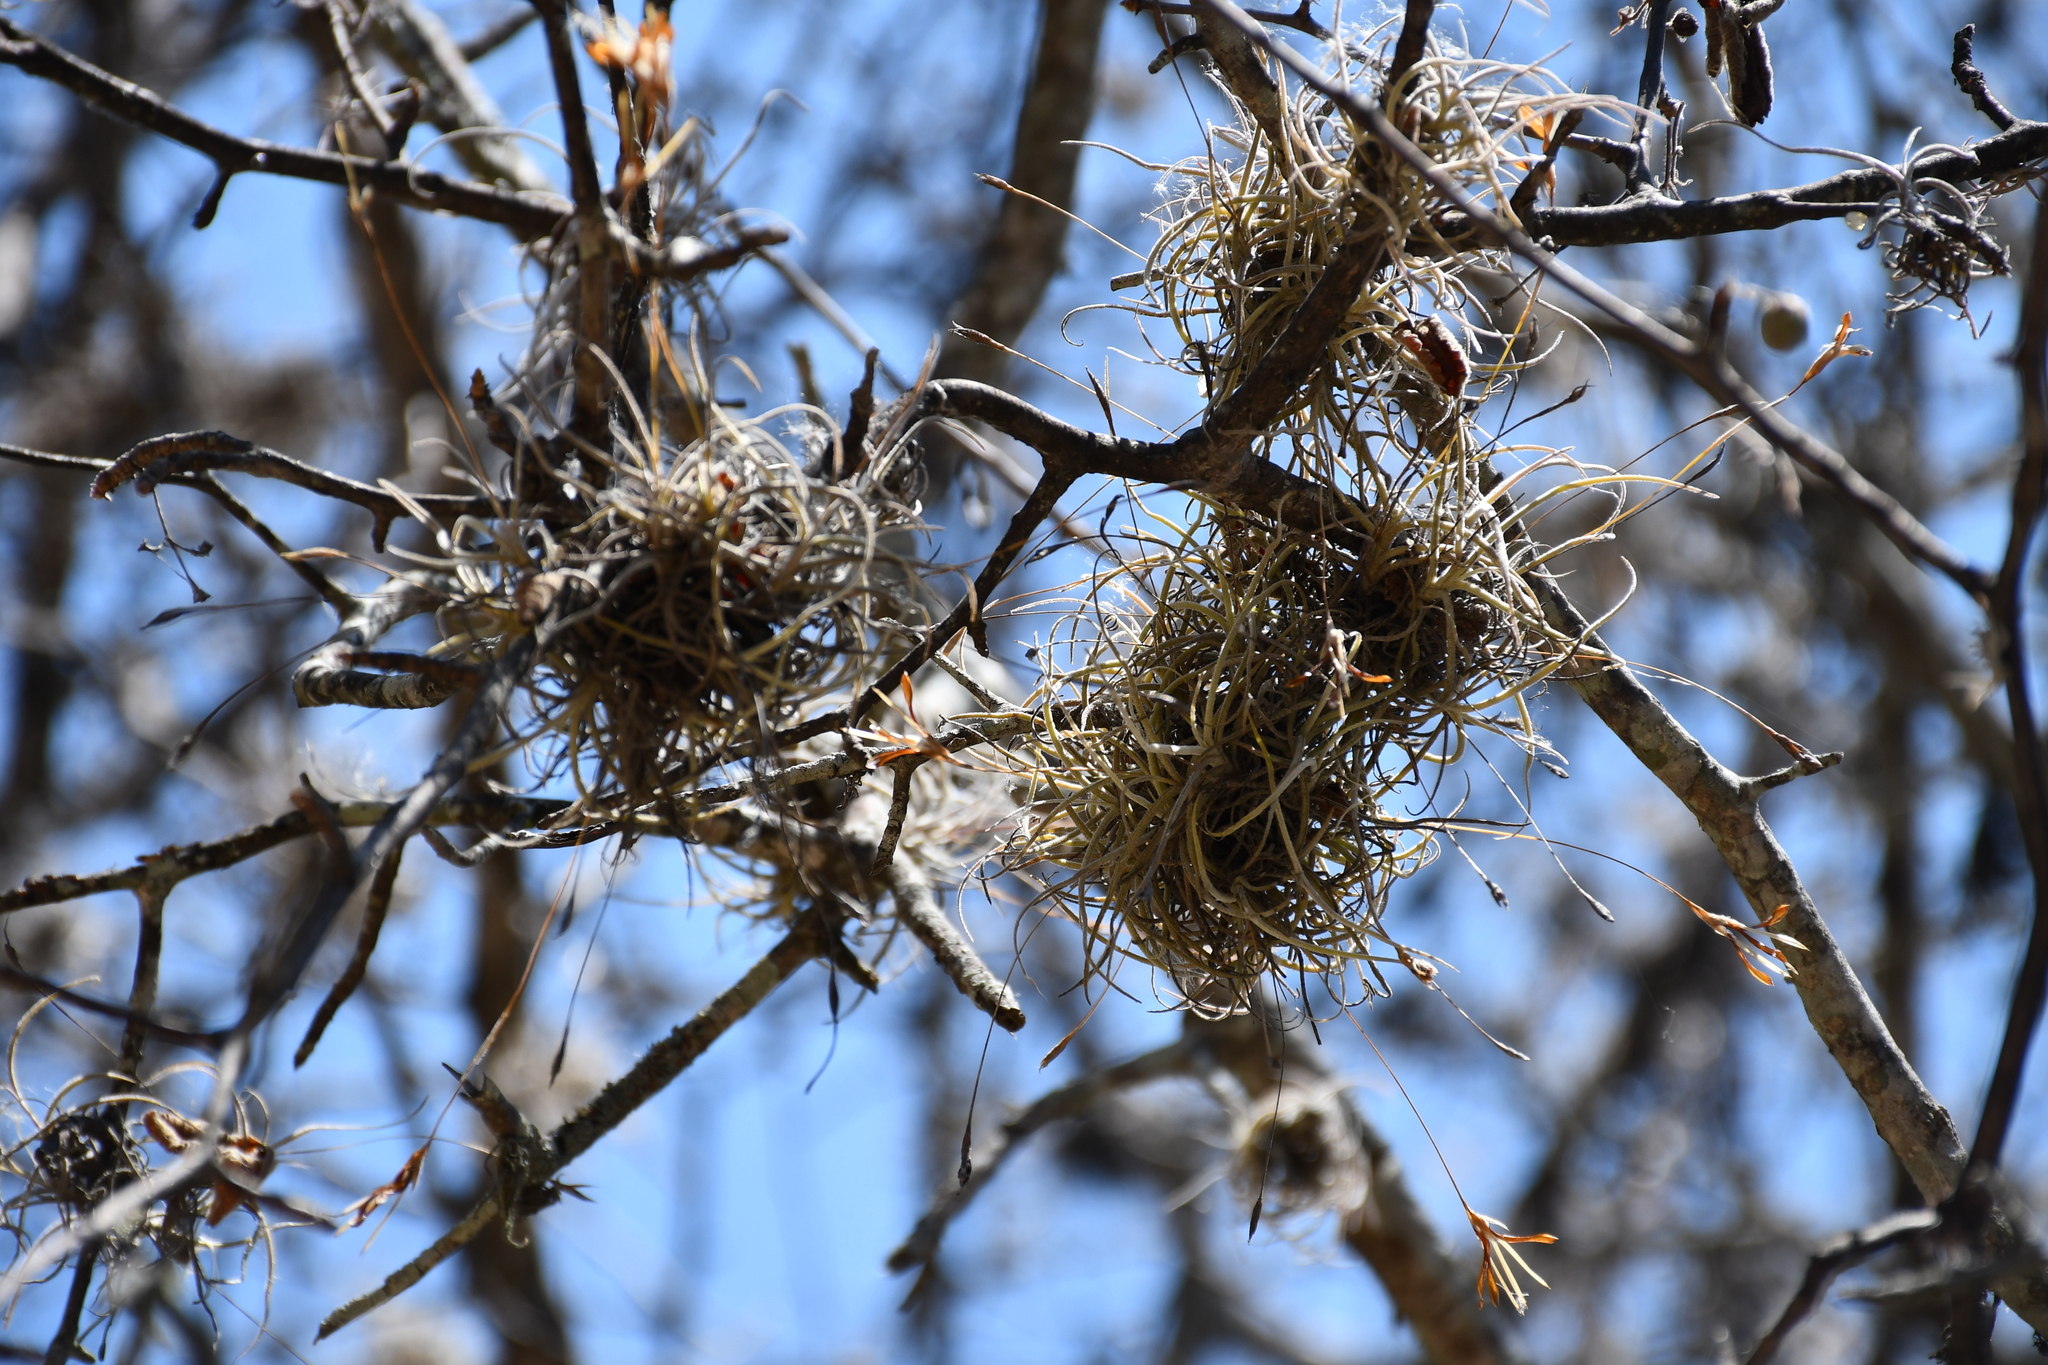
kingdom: Plantae
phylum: Tracheophyta
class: Liliopsida
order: Poales
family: Bromeliaceae
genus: Tillandsia
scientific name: Tillandsia recurvata
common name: Small ballmoss
